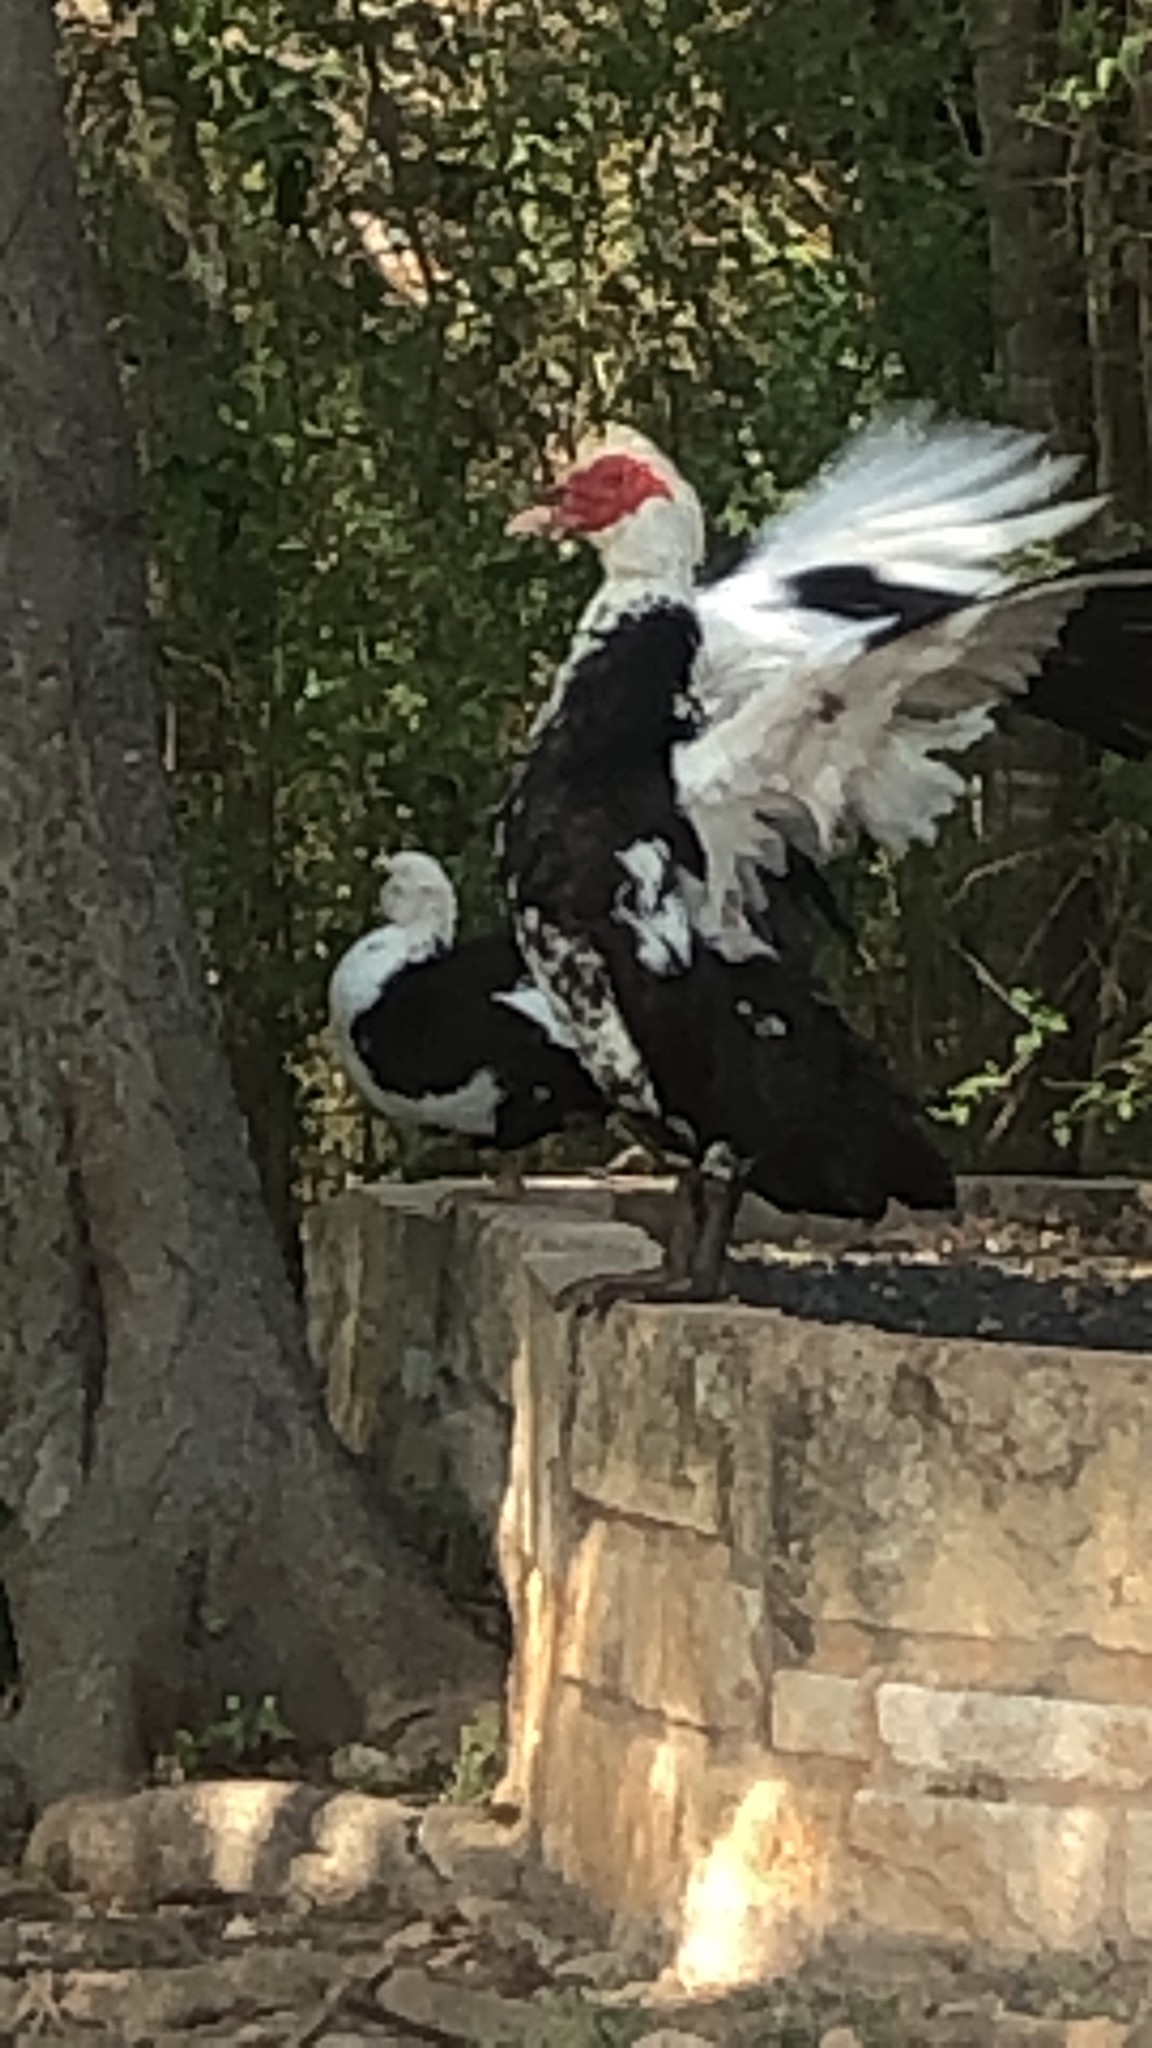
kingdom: Animalia
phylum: Chordata
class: Aves
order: Anseriformes
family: Anatidae
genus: Cairina
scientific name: Cairina moschata
